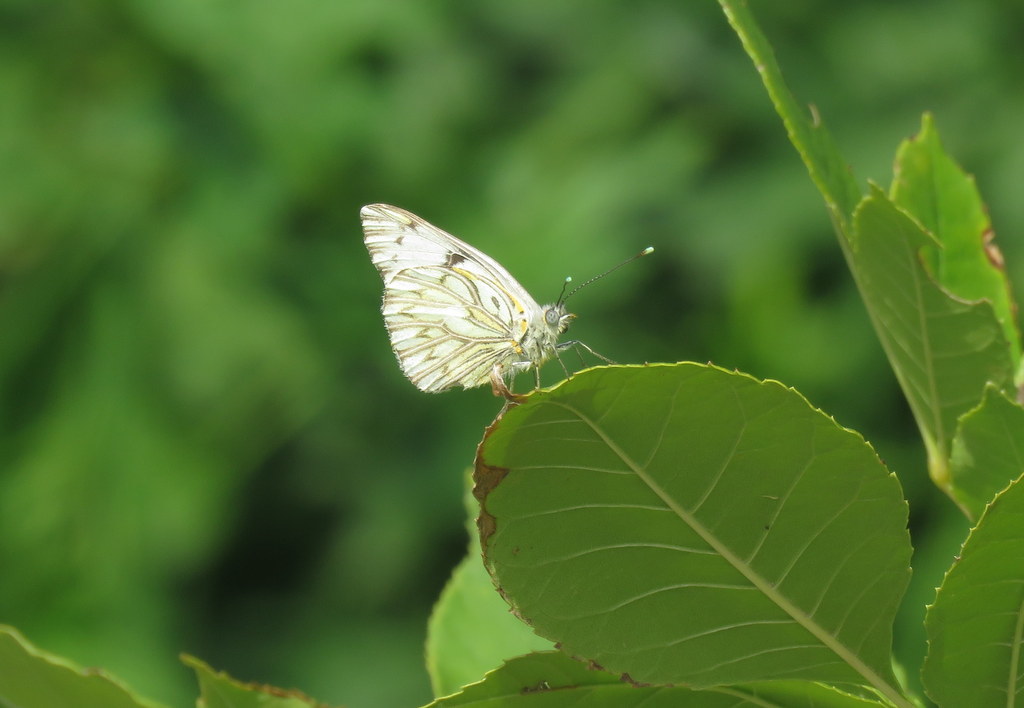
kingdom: Animalia
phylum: Arthropoda
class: Insecta
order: Lepidoptera
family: Pieridae
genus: Tatochila
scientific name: Tatochila autodice
